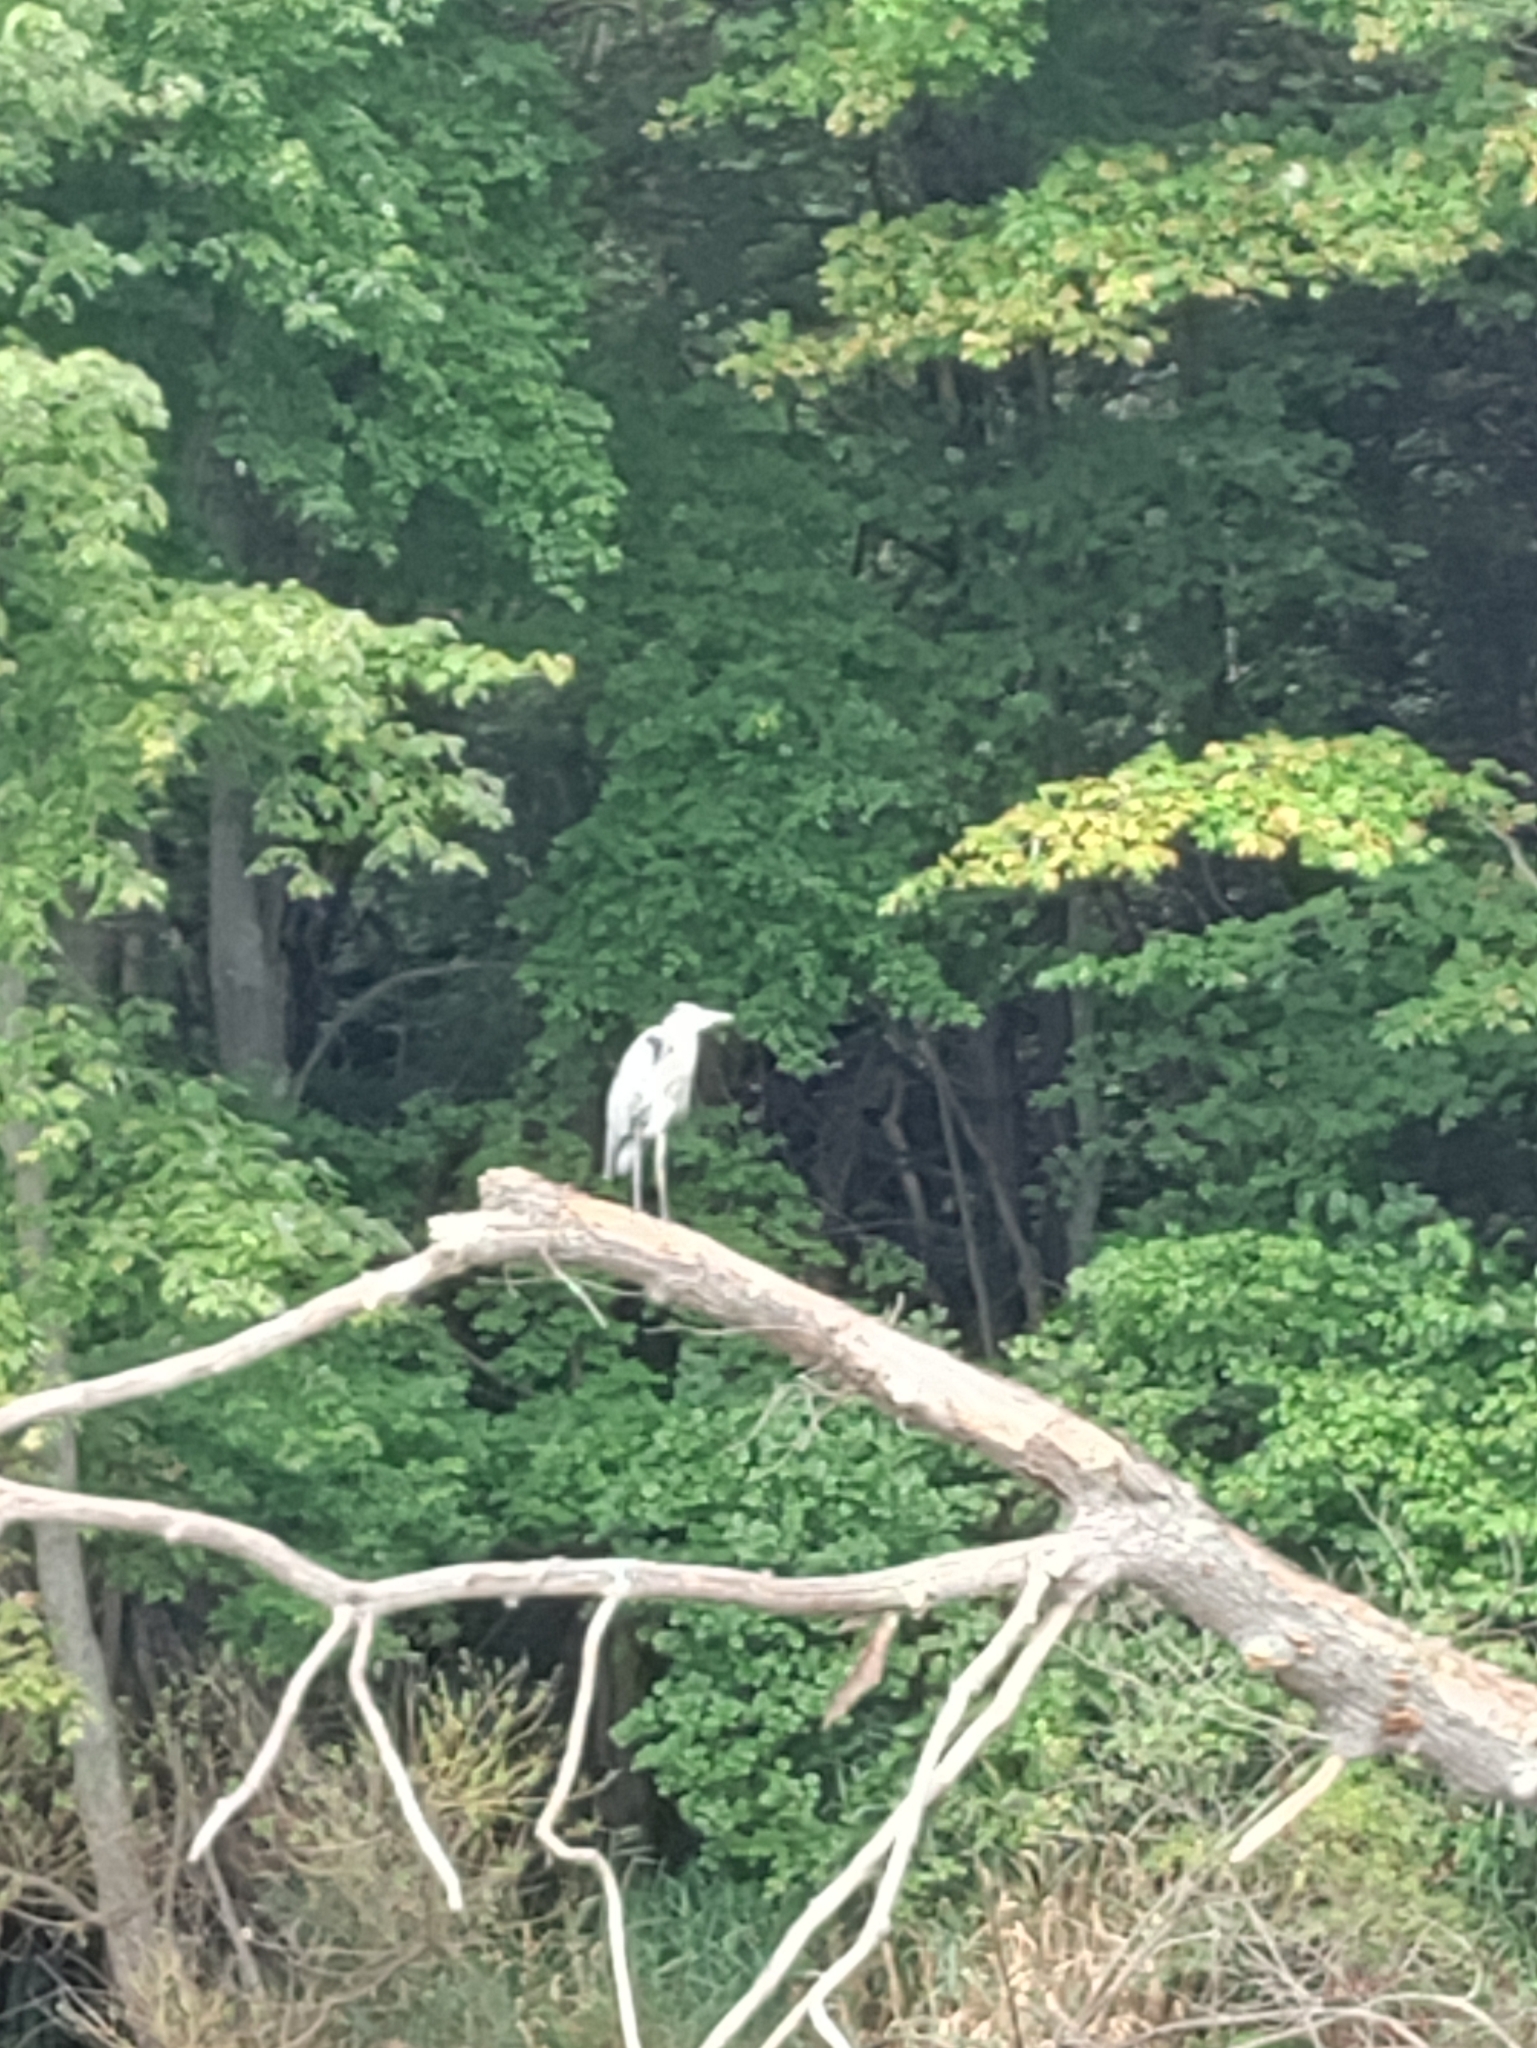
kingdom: Animalia
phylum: Chordata
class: Aves
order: Pelecaniformes
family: Ardeidae
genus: Ardea
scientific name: Ardea herodias
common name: Great blue heron
